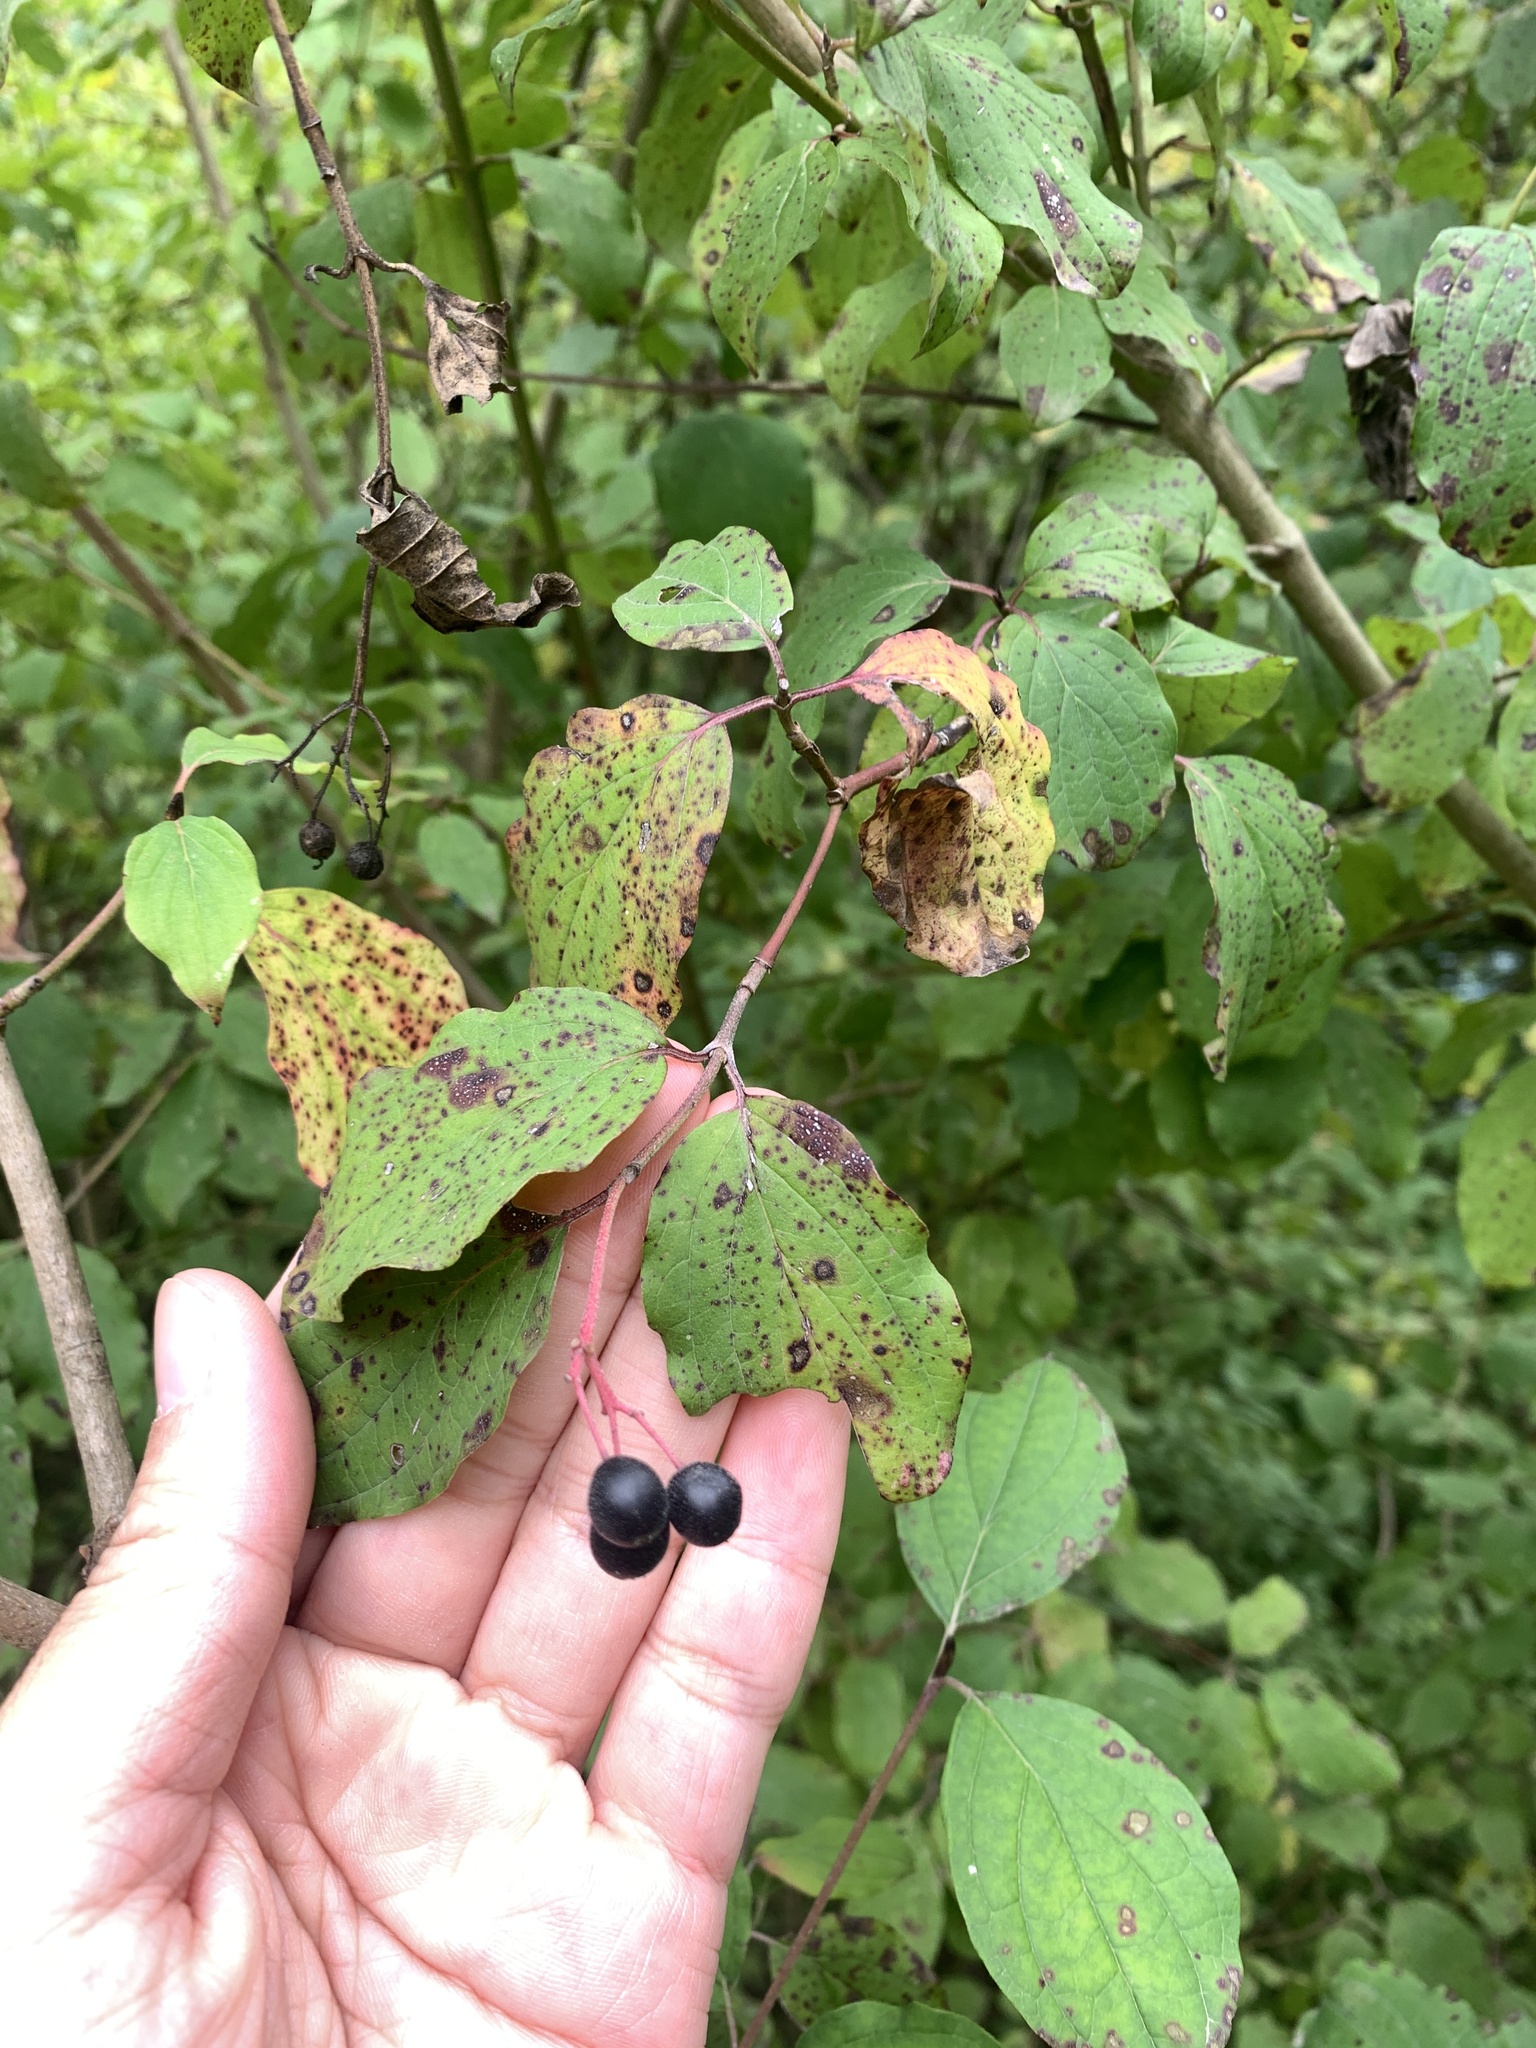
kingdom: Plantae
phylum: Tracheophyta
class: Magnoliopsida
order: Cornales
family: Cornaceae
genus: Cornus
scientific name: Cornus sanguinea
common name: Dogwood
